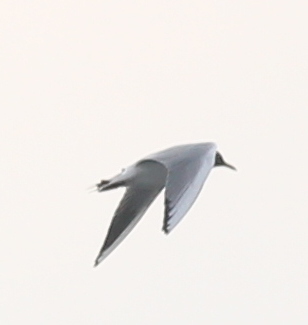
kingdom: Animalia
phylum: Chordata
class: Aves
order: Charadriiformes
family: Laridae
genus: Chroicocephalus
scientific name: Chroicocephalus ridibundus
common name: Black-headed gull
